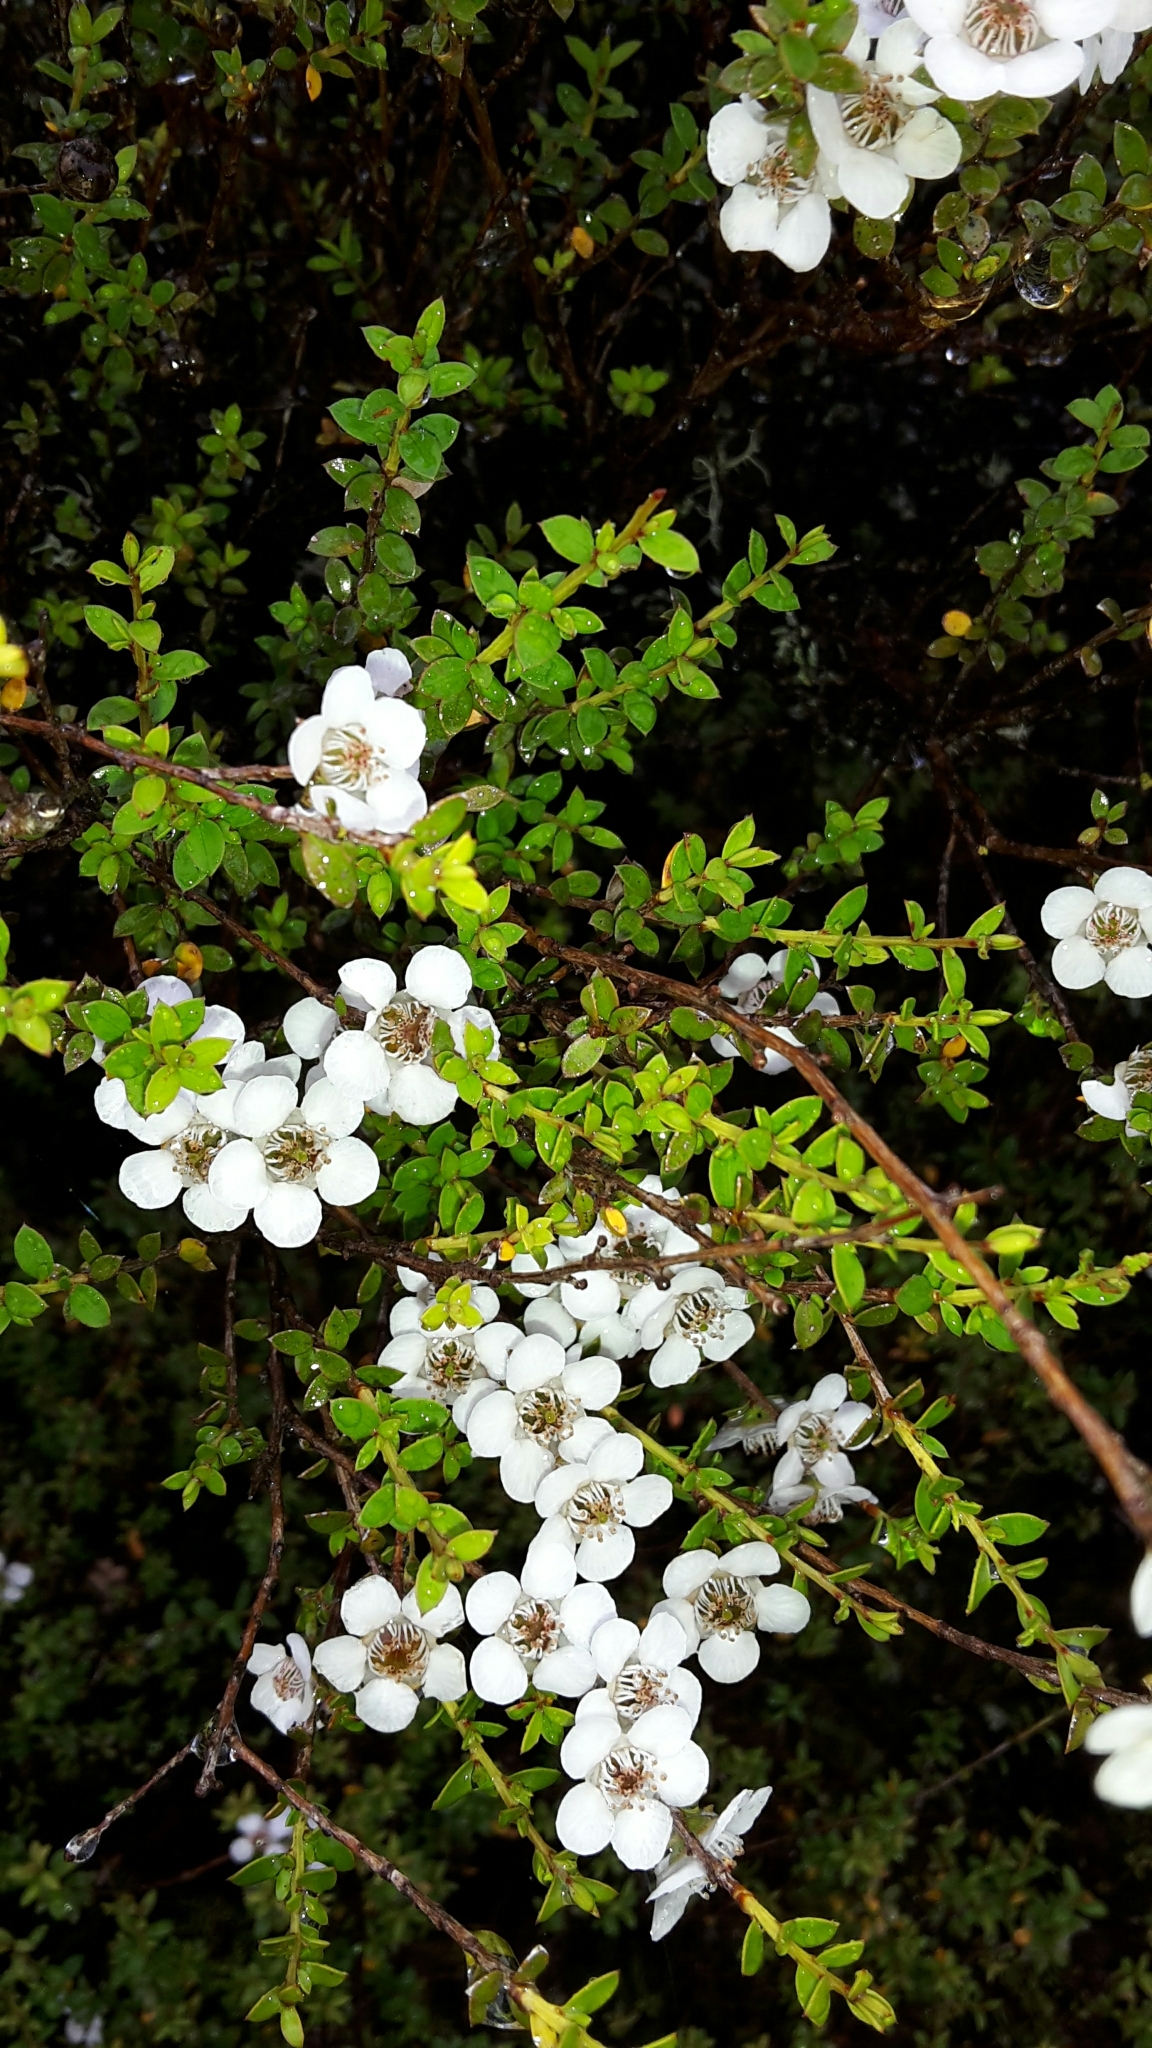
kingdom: Plantae
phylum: Tracheophyta
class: Magnoliopsida
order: Myrtales
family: Myrtaceae
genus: Leptospermum
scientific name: Leptospermum scoparium
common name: Broom tea-tree
